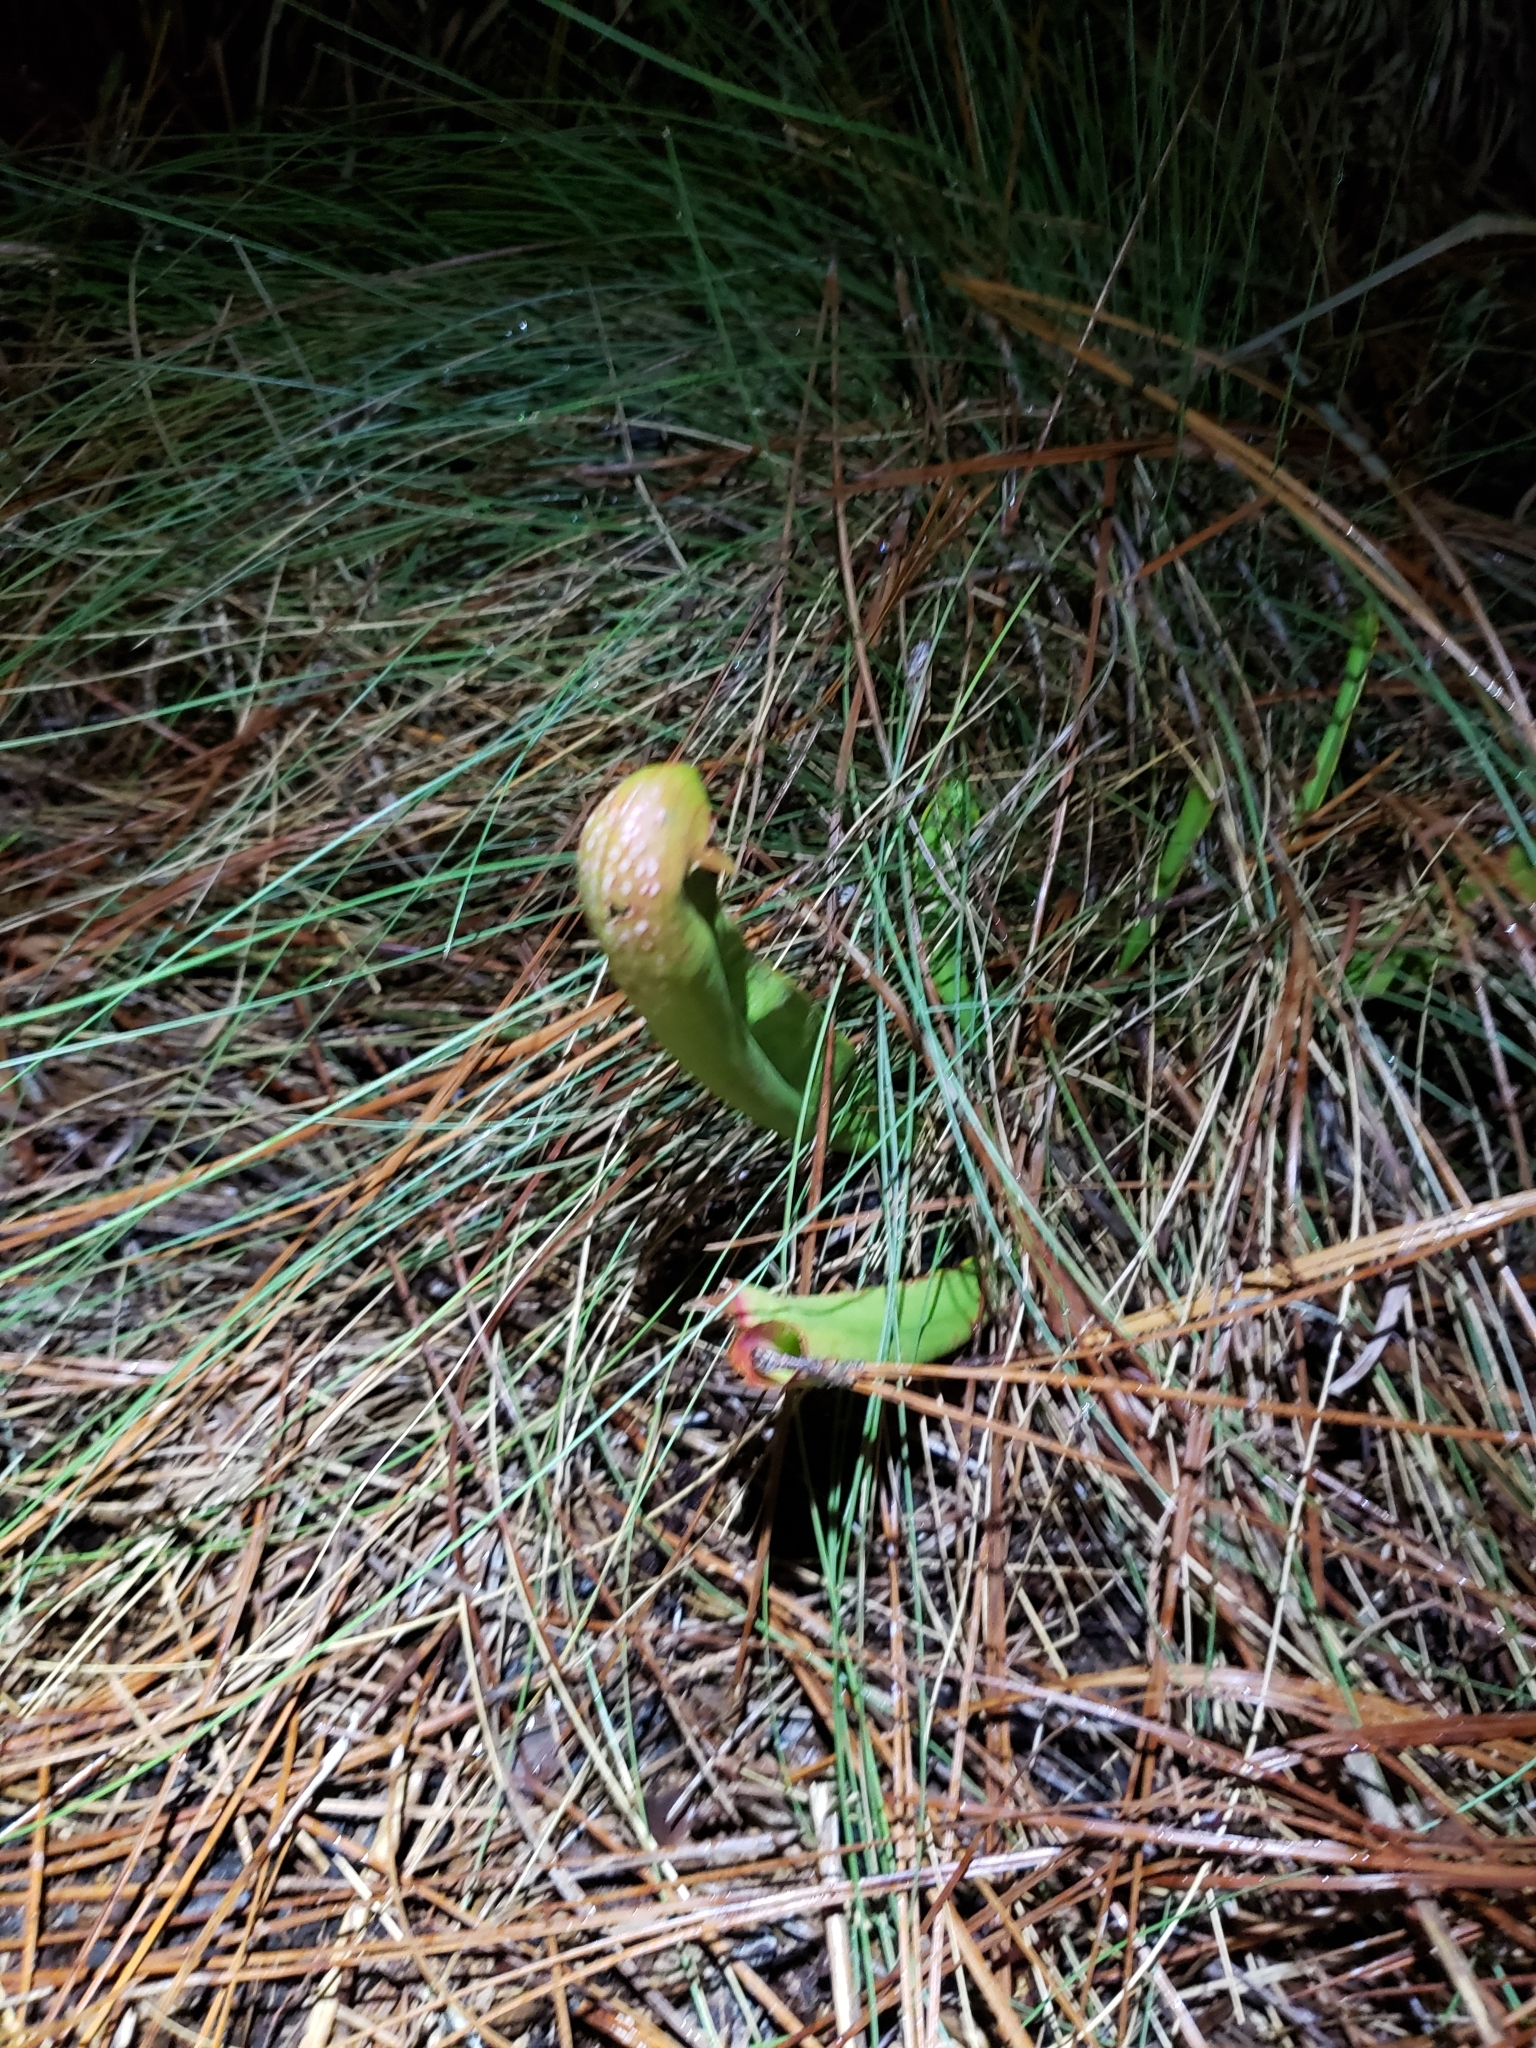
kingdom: Plantae
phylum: Tracheophyta
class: Magnoliopsida
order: Ericales
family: Sarraceniaceae
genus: Sarracenia
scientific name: Sarracenia minor
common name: Rainhat-trumpet
